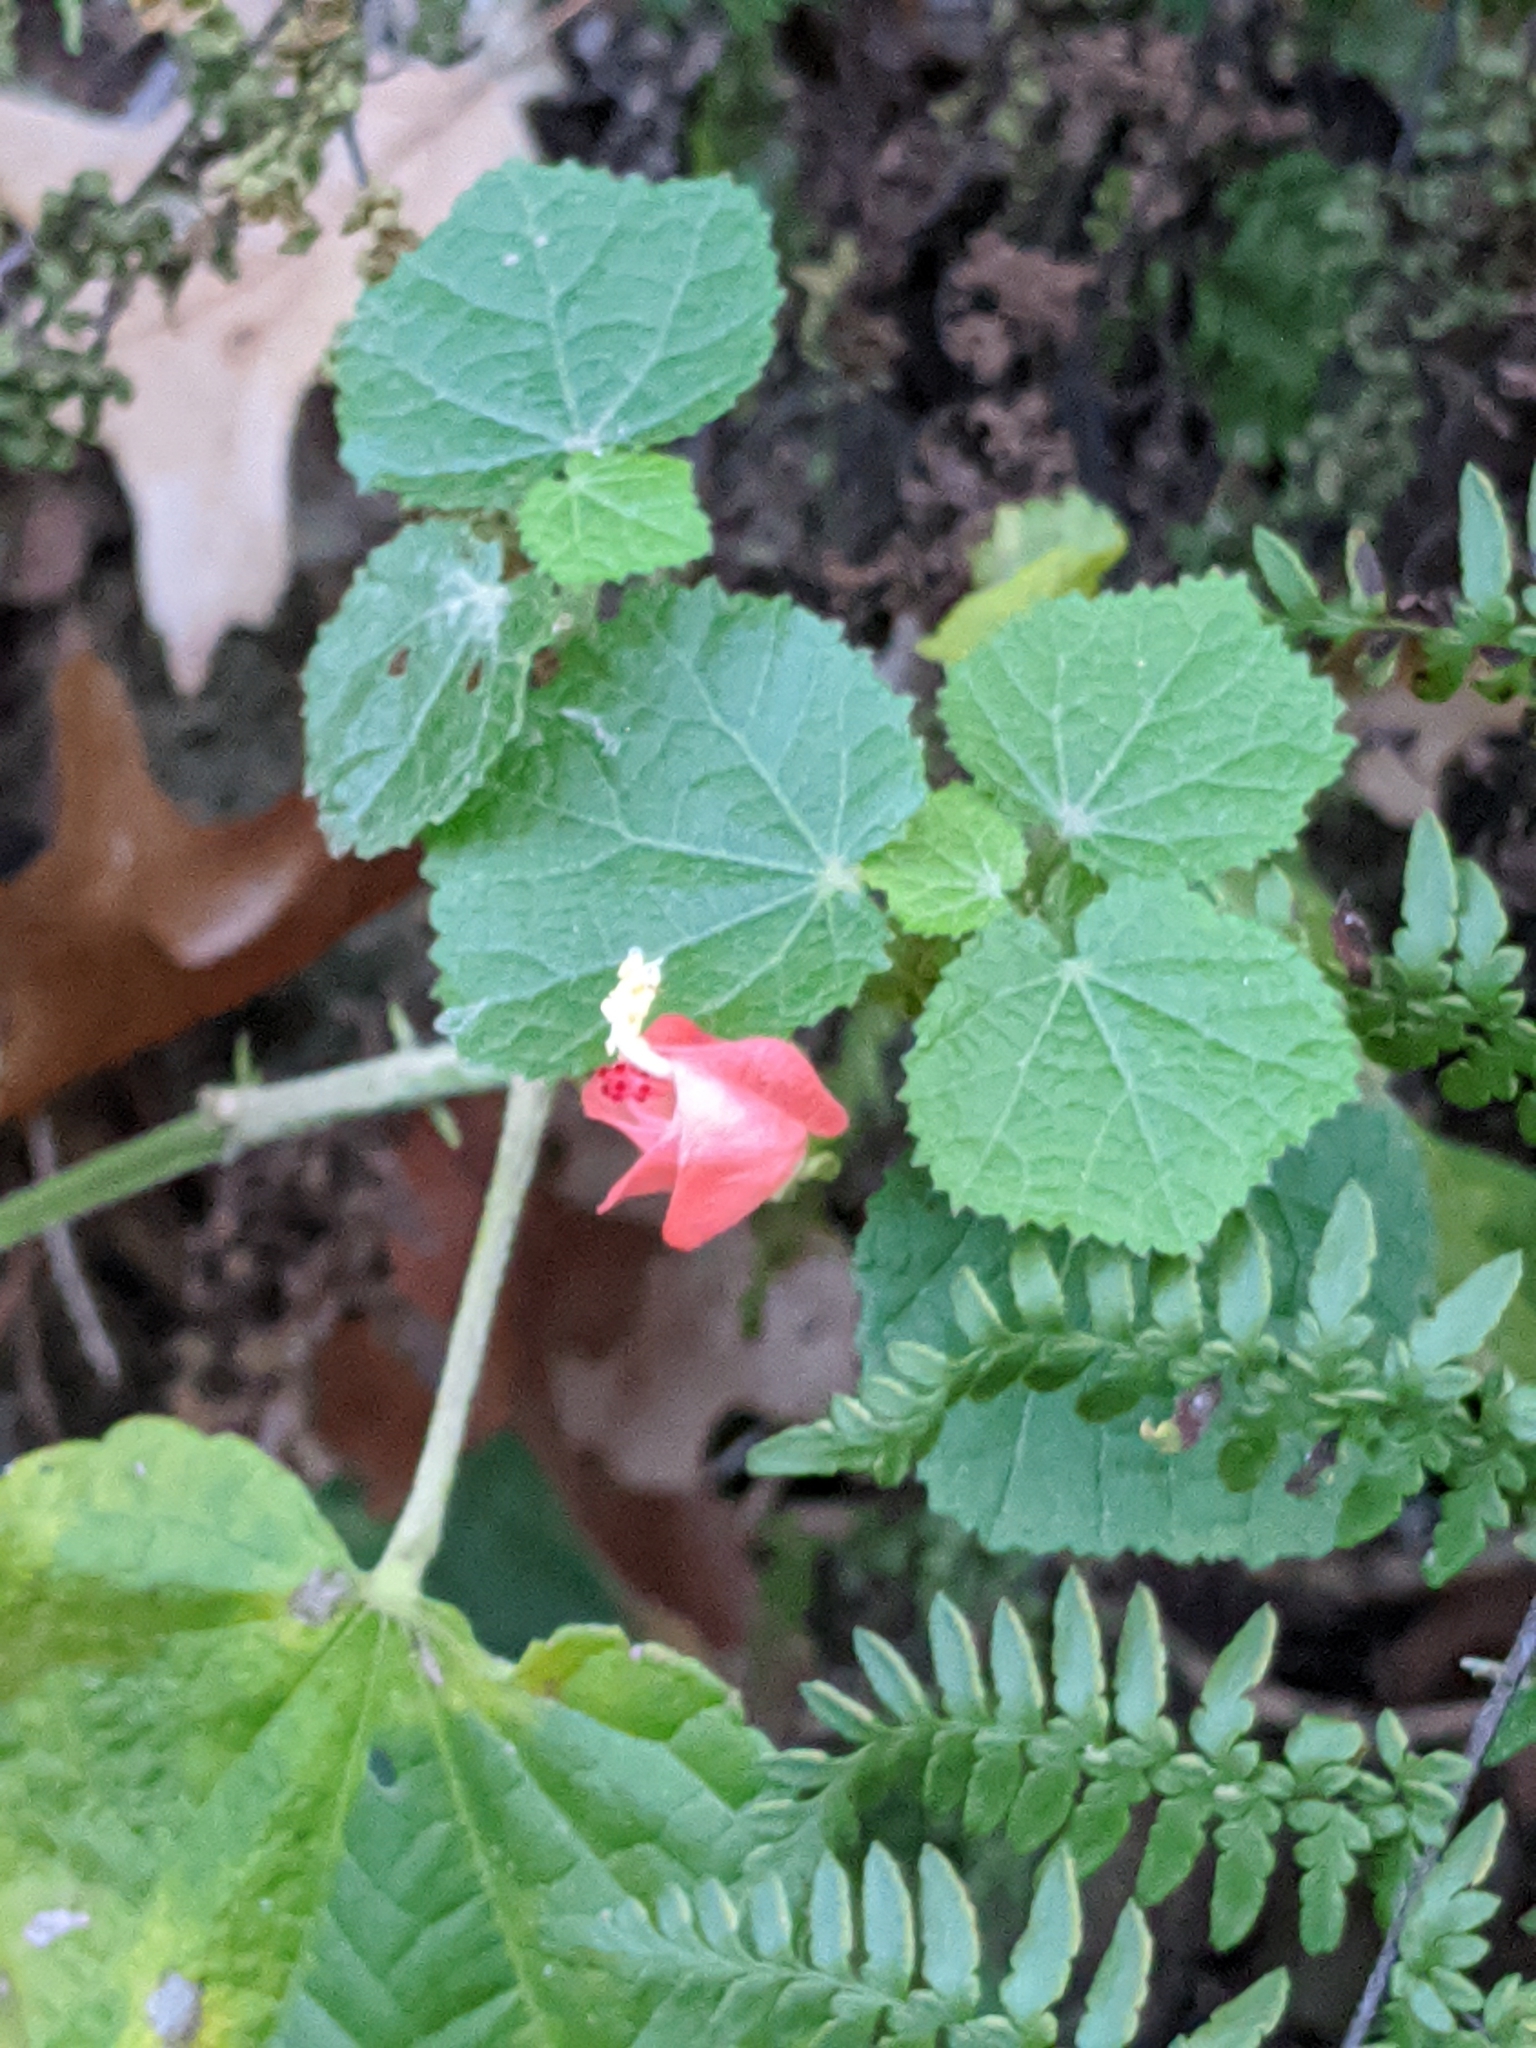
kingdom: Plantae
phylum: Tracheophyta
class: Magnoliopsida
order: Malvales
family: Malvaceae
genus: Malvaviscus
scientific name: Malvaviscus arboreus
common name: Wax mallow
